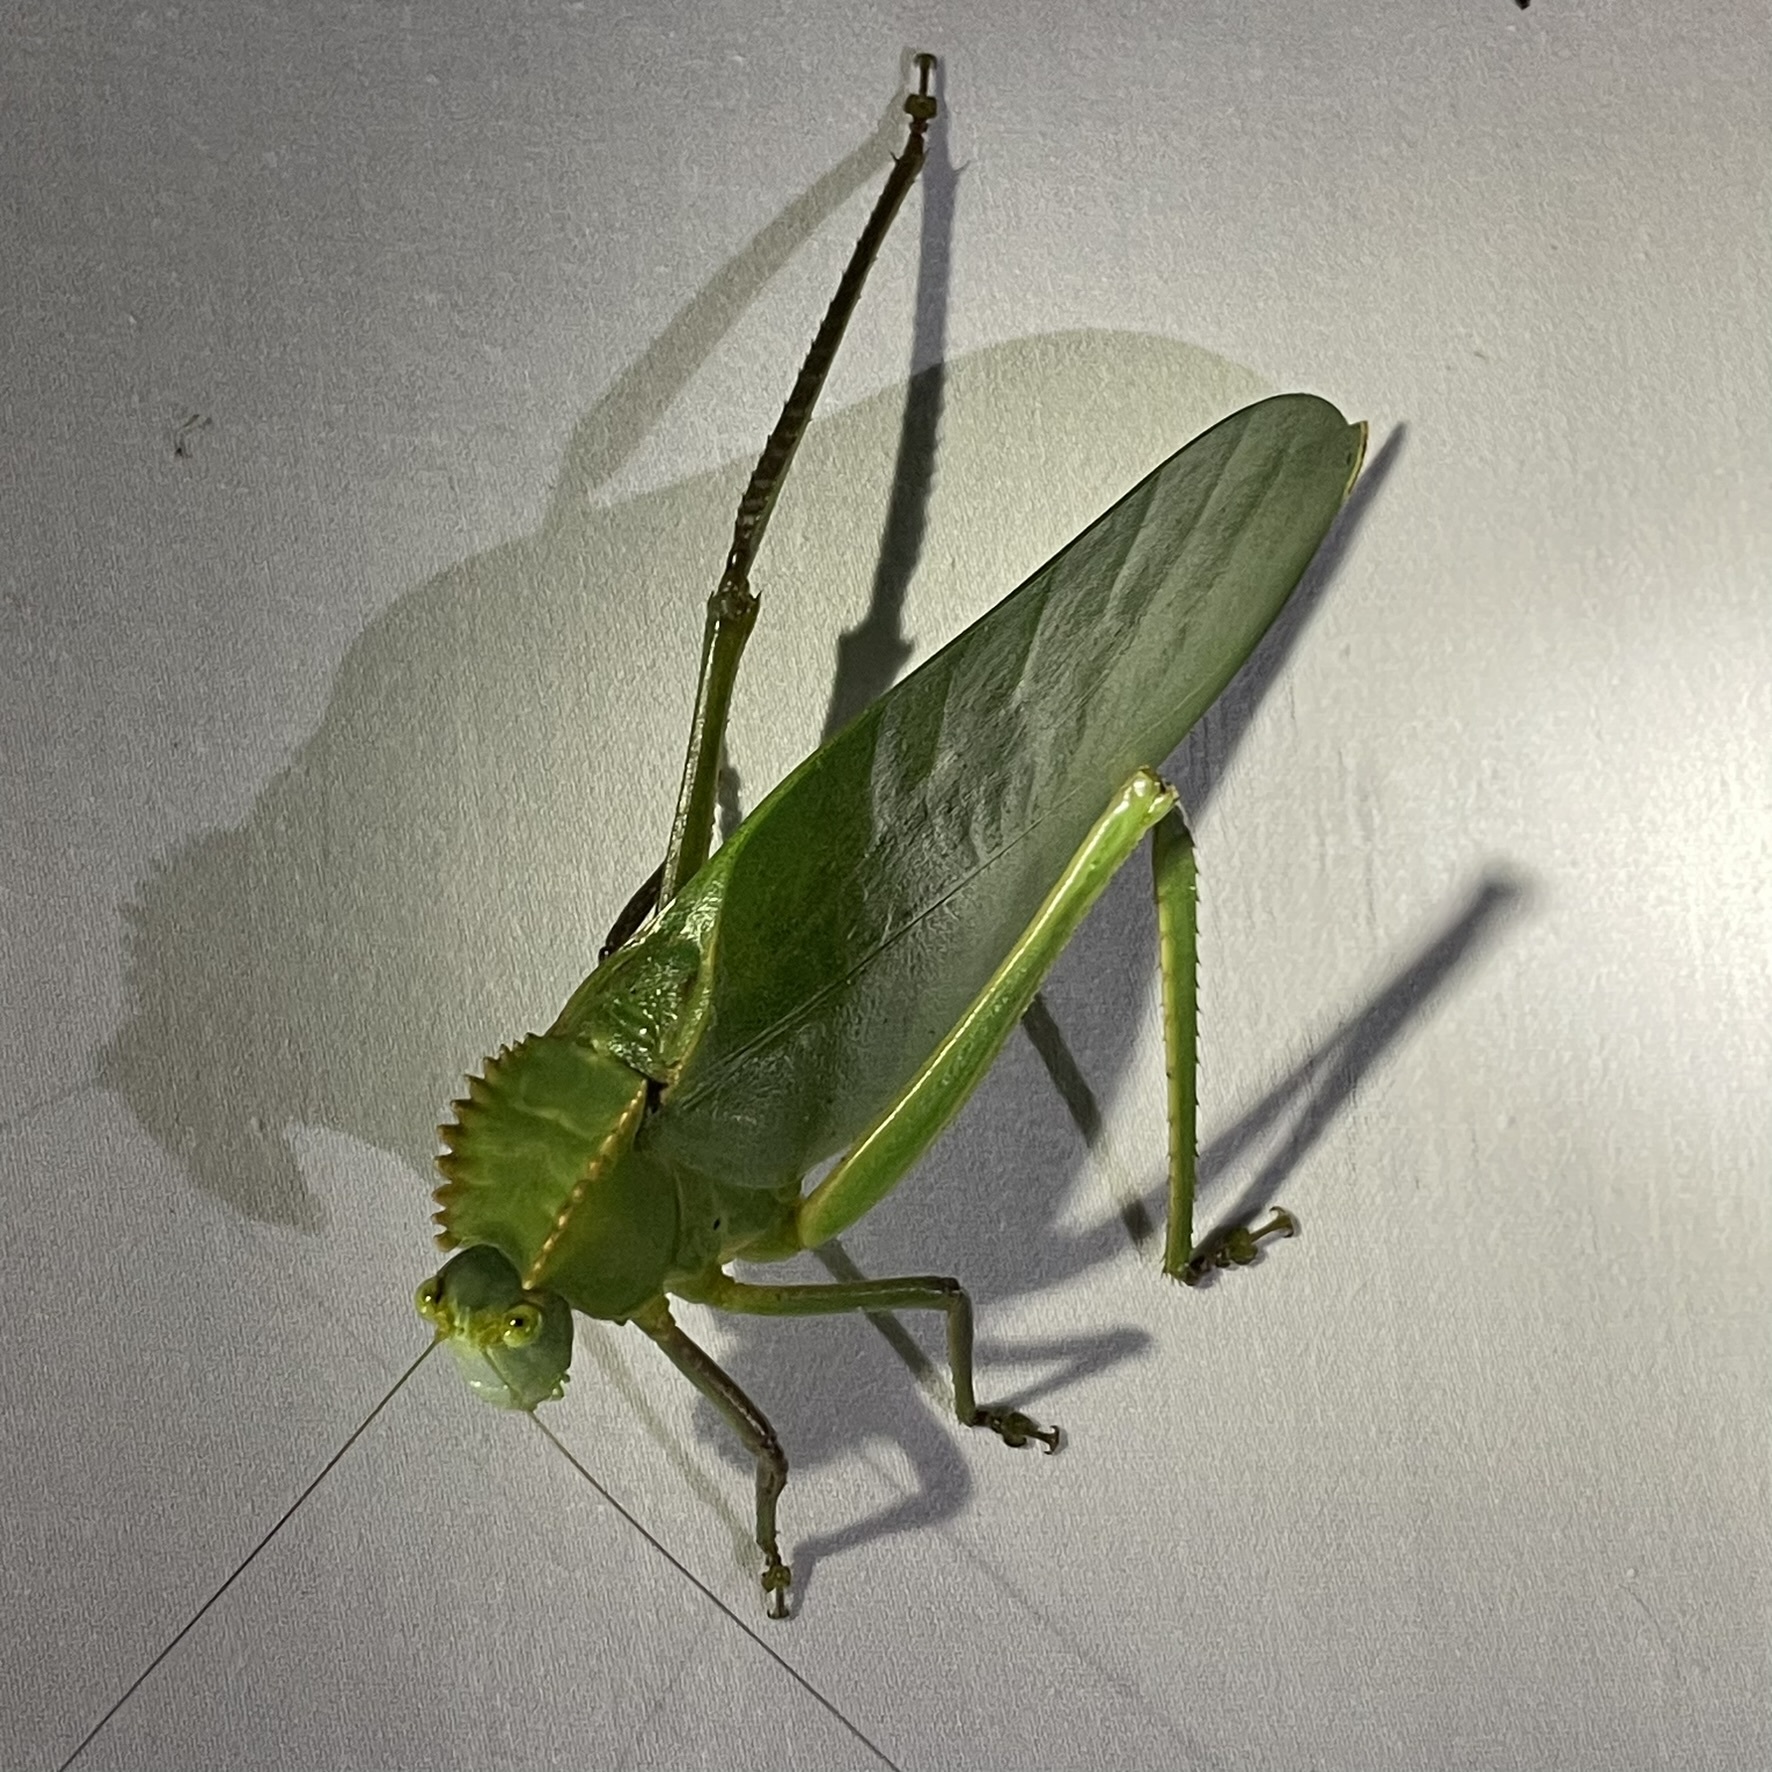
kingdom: Animalia
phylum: Arthropoda
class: Insecta
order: Orthoptera
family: Tettigoniidae
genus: Steirodon
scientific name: Steirodon stalii
